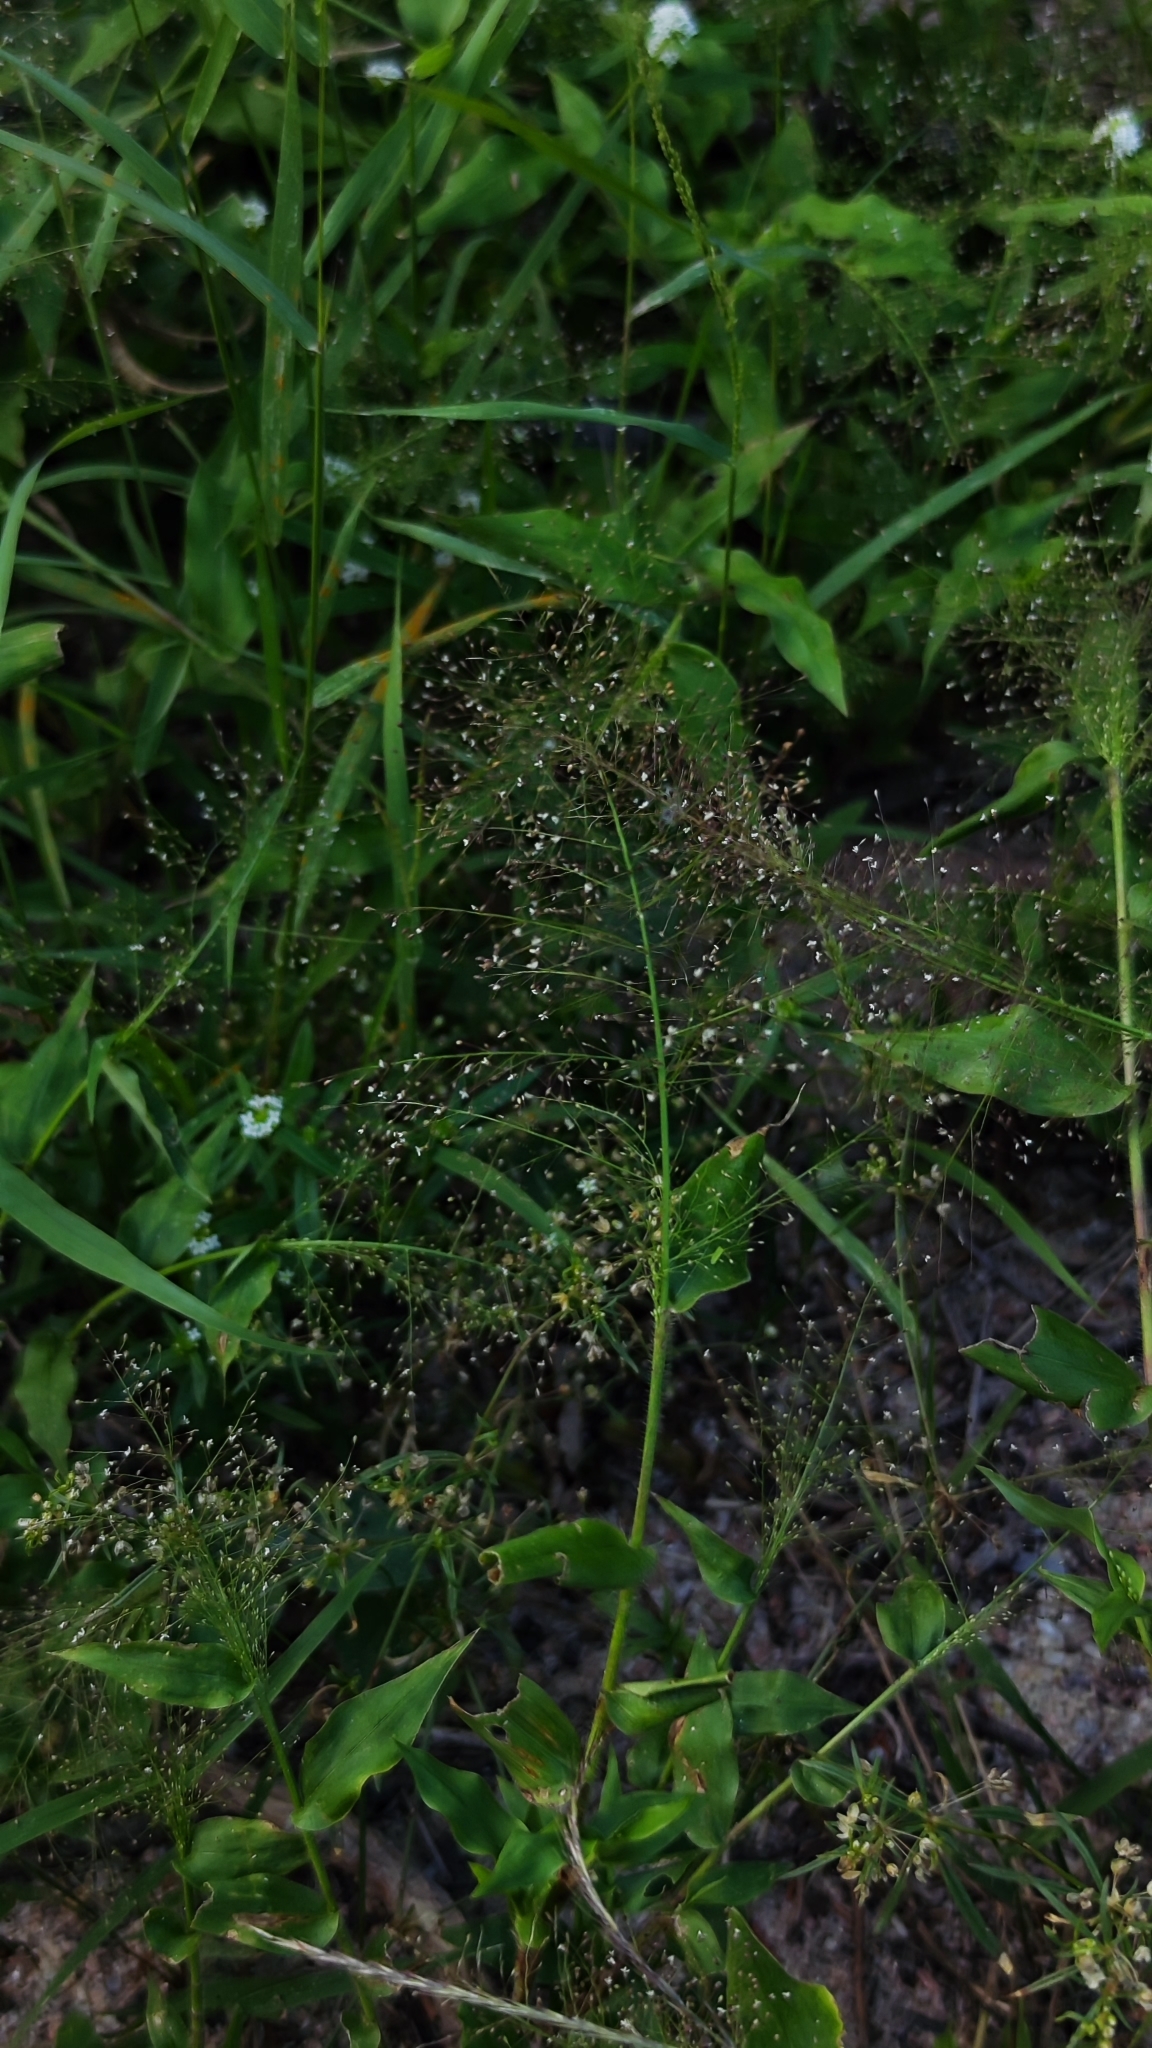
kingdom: Plantae
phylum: Tracheophyta
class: Liliopsida
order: Poales
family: Poaceae
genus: Panicum
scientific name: Panicum trichoides
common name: Tickle grass
